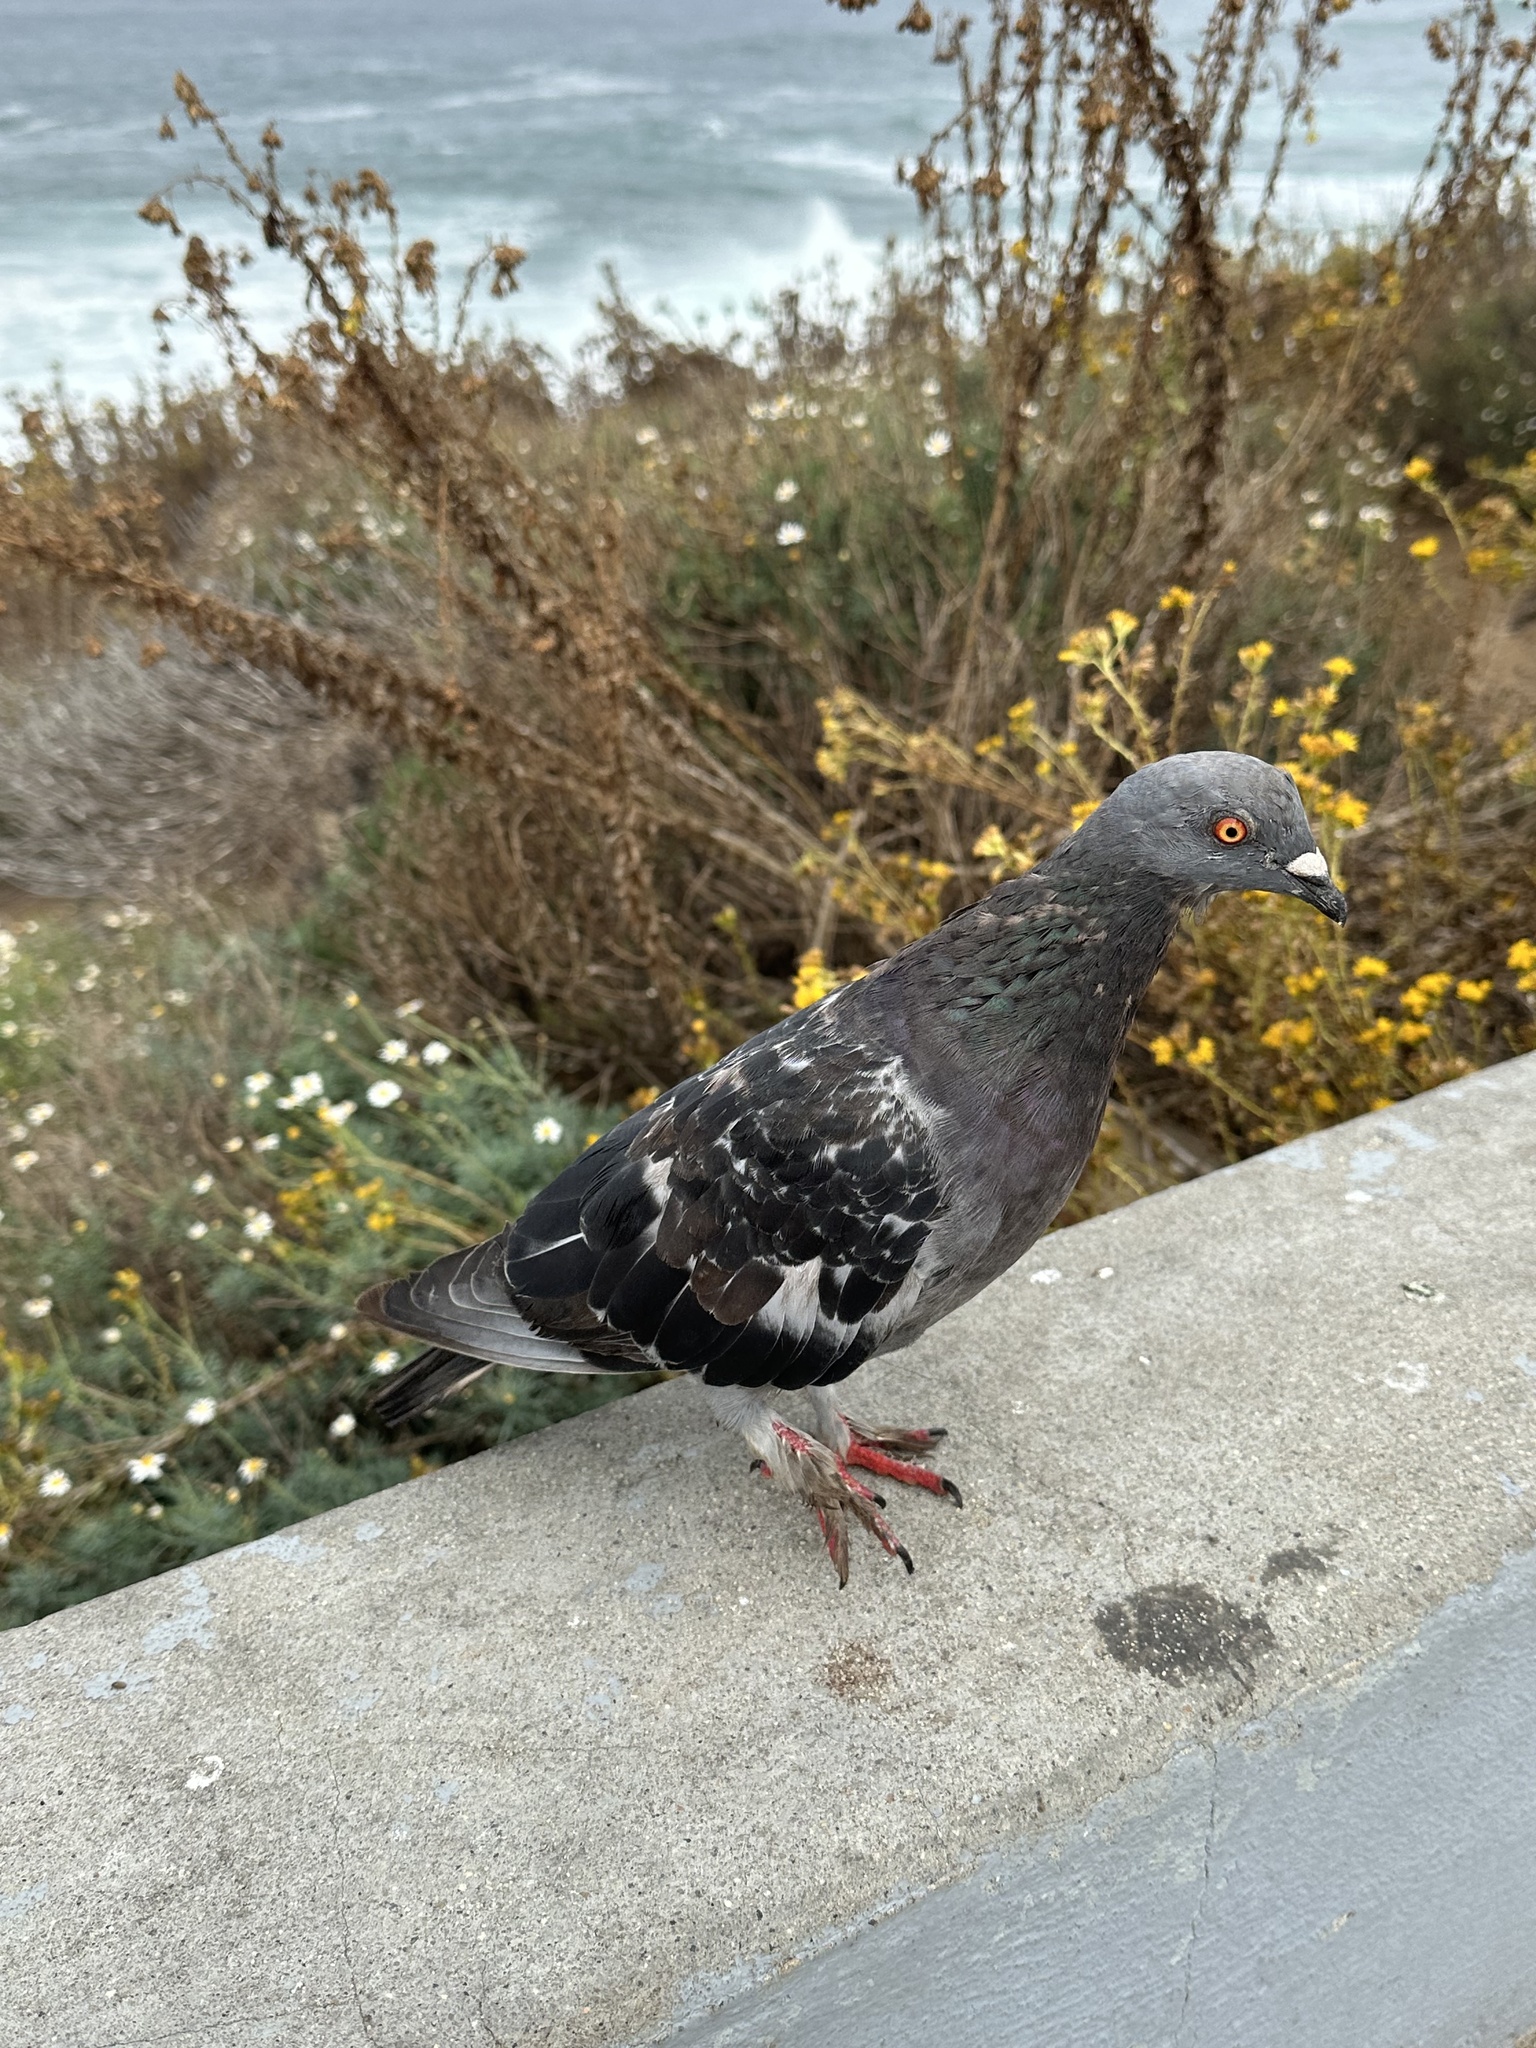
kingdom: Animalia
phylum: Chordata
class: Aves
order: Columbiformes
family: Columbidae
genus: Columba
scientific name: Columba livia
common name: Rock pigeon
